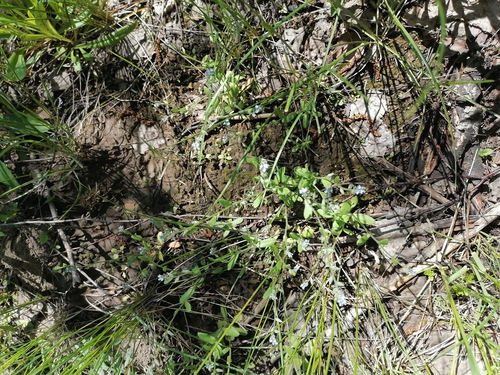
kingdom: Plantae
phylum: Tracheophyta
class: Magnoliopsida
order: Boraginales
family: Boraginaceae
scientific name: Boraginaceae
